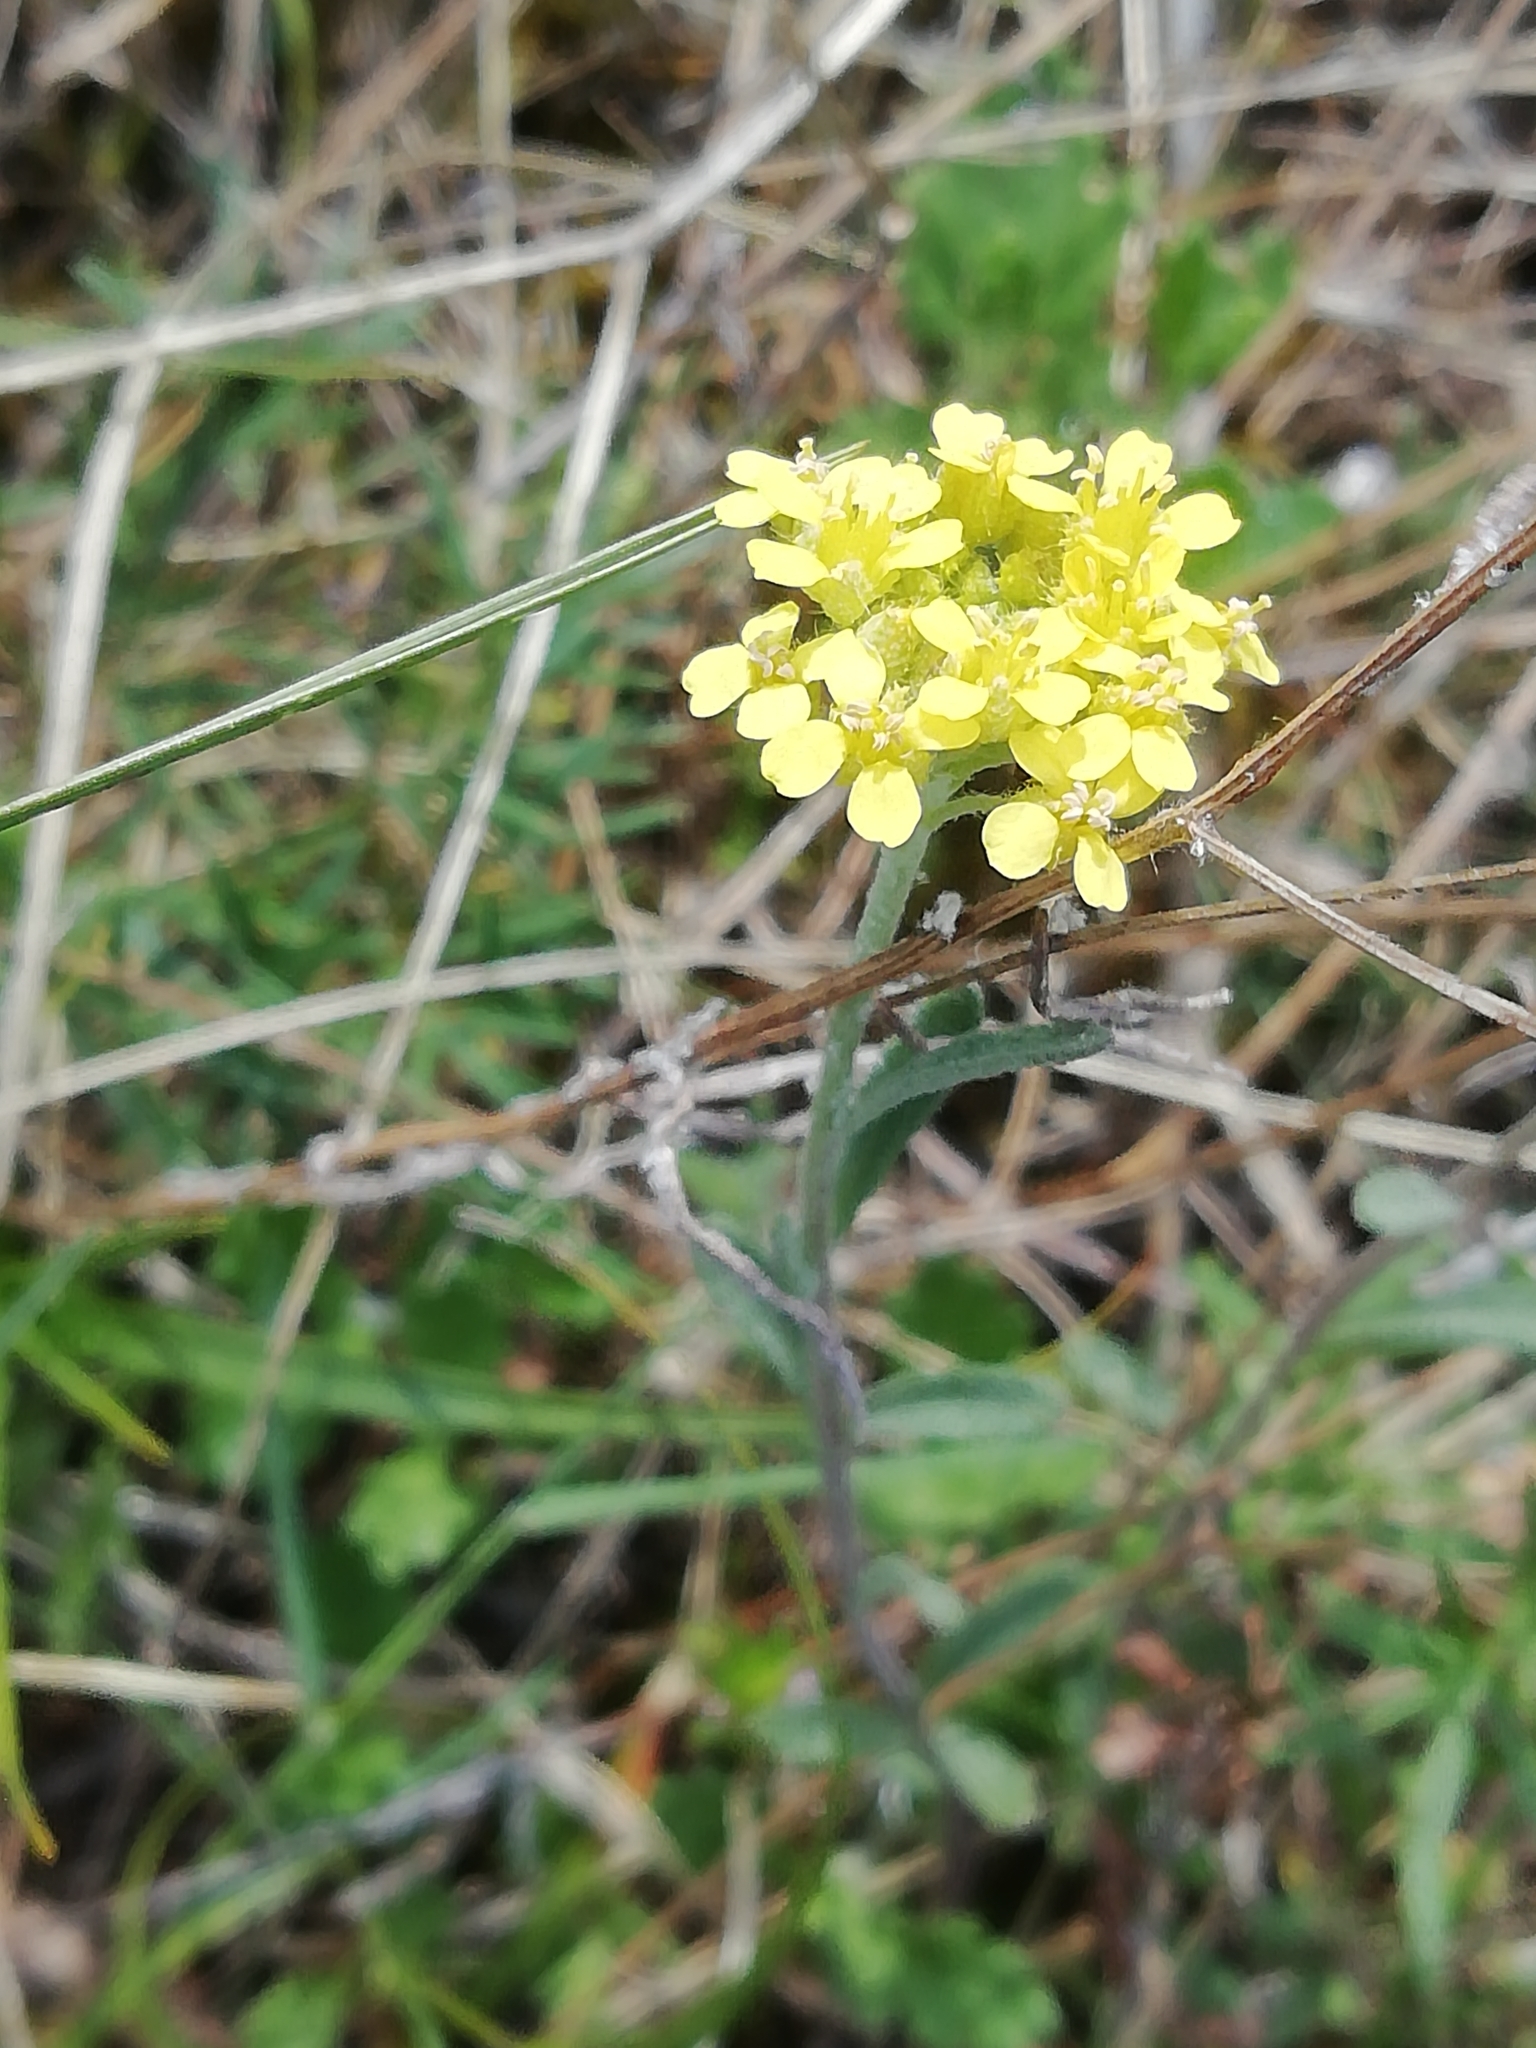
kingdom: Plantae
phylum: Tracheophyta
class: Magnoliopsida
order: Brassicales
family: Brassicaceae
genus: Erysimum
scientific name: Erysimum cuspidatum
